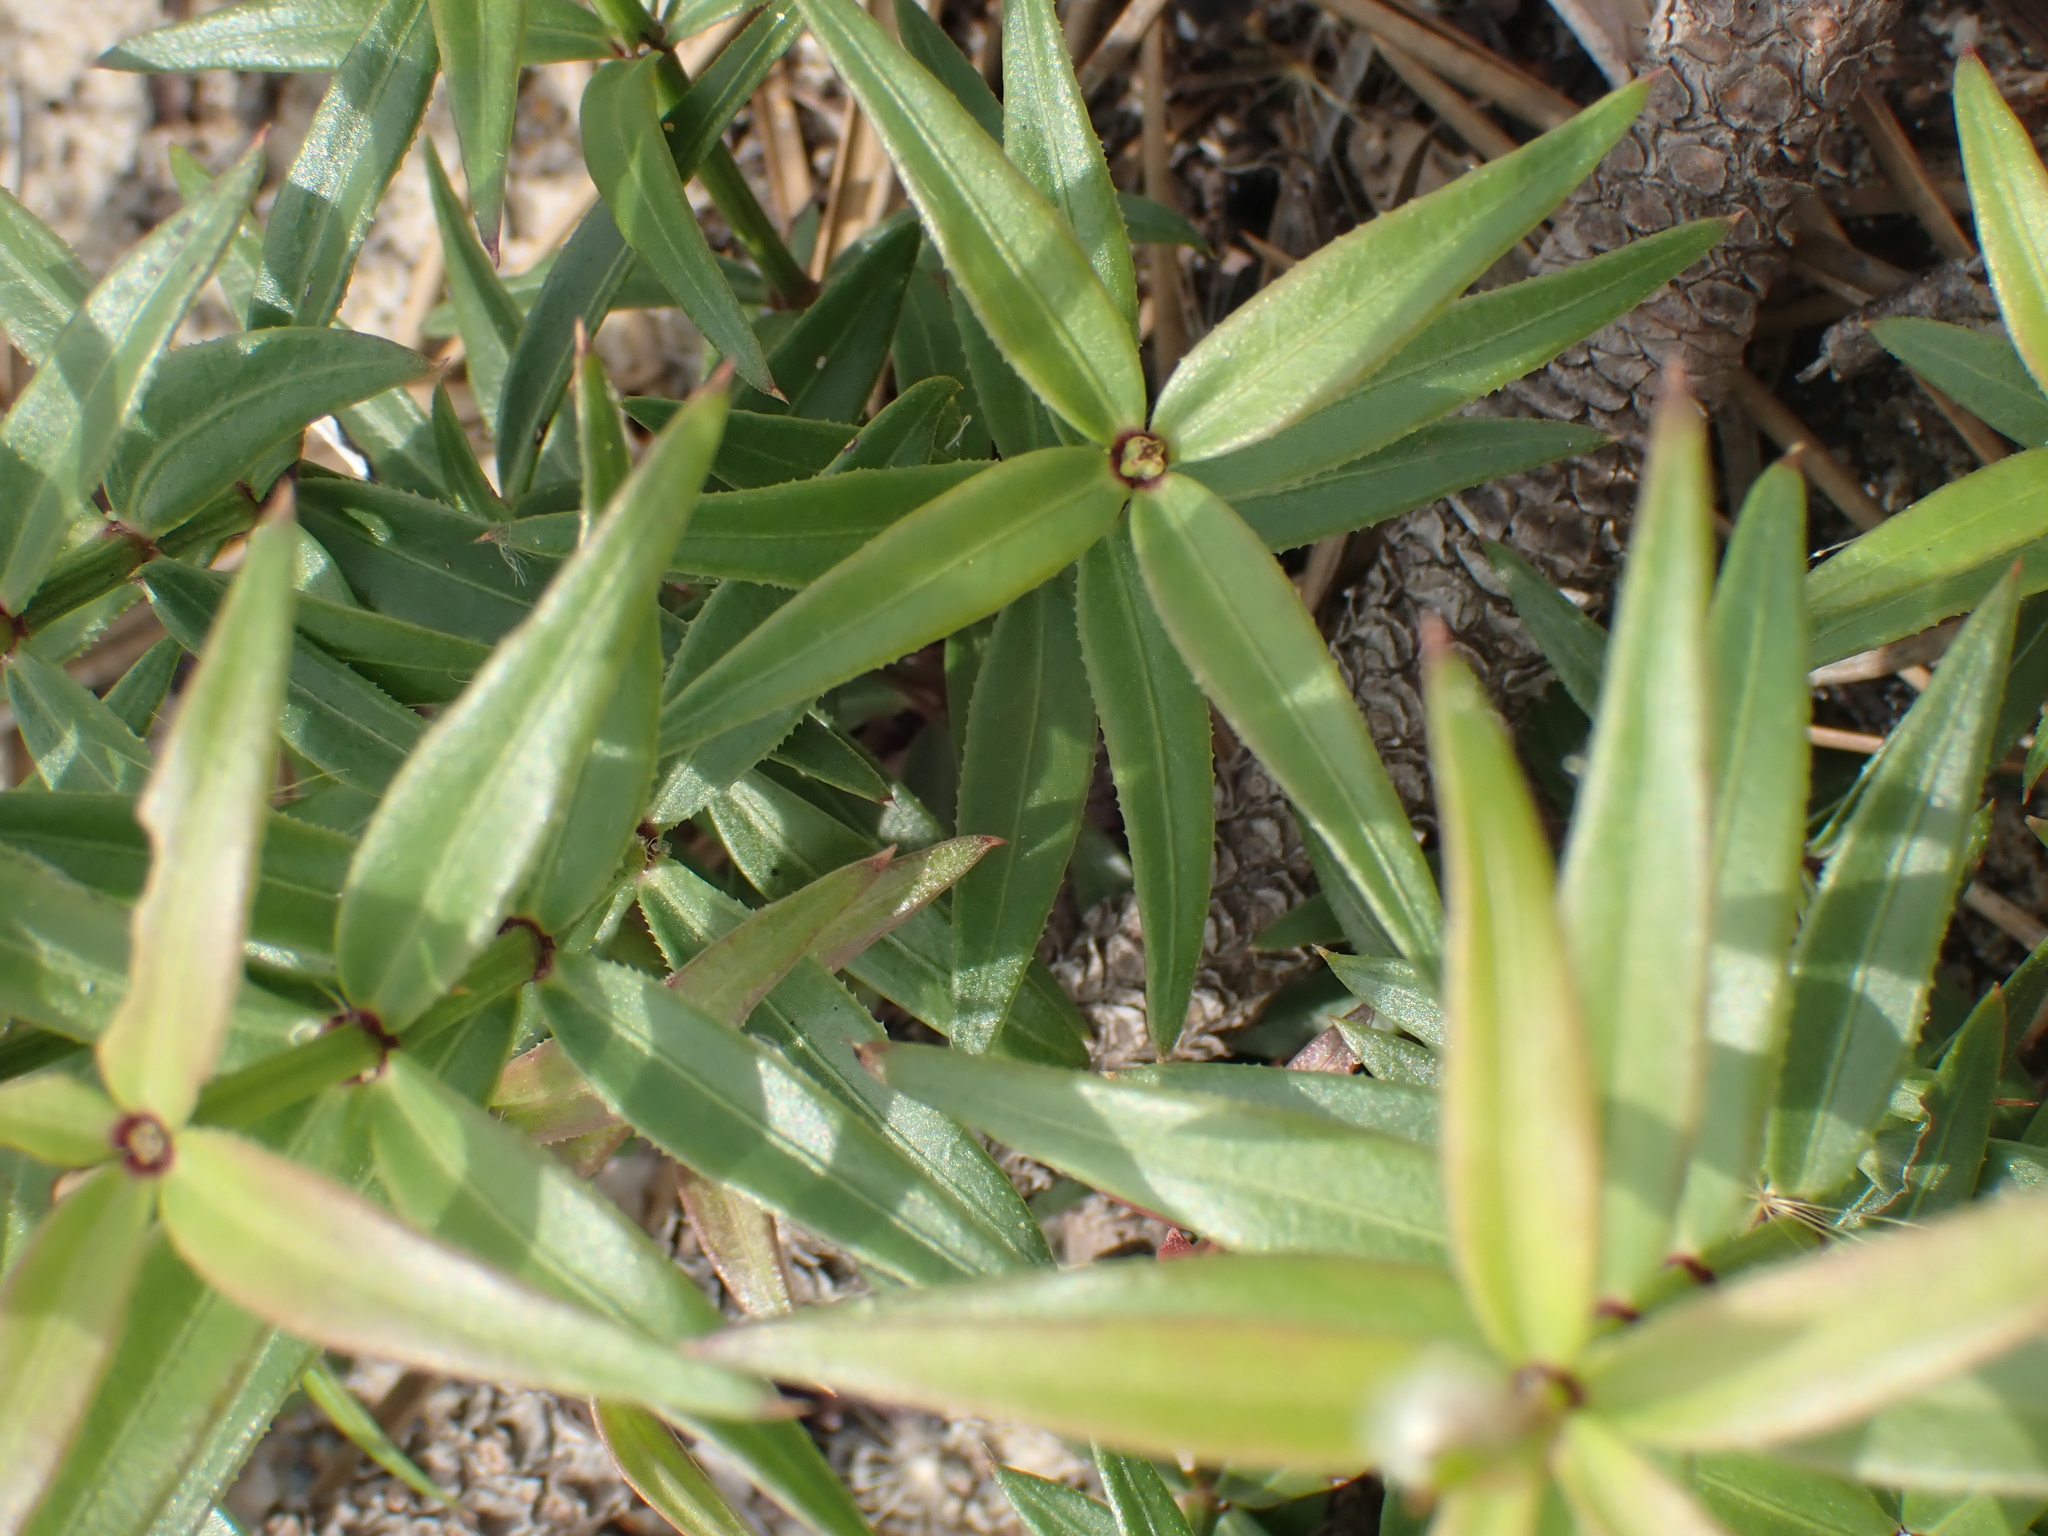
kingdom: Plantae
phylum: Tracheophyta
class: Magnoliopsida
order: Gentianales
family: Rubiaceae
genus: Rubia
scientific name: Rubia peregrina
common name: Wild madder
